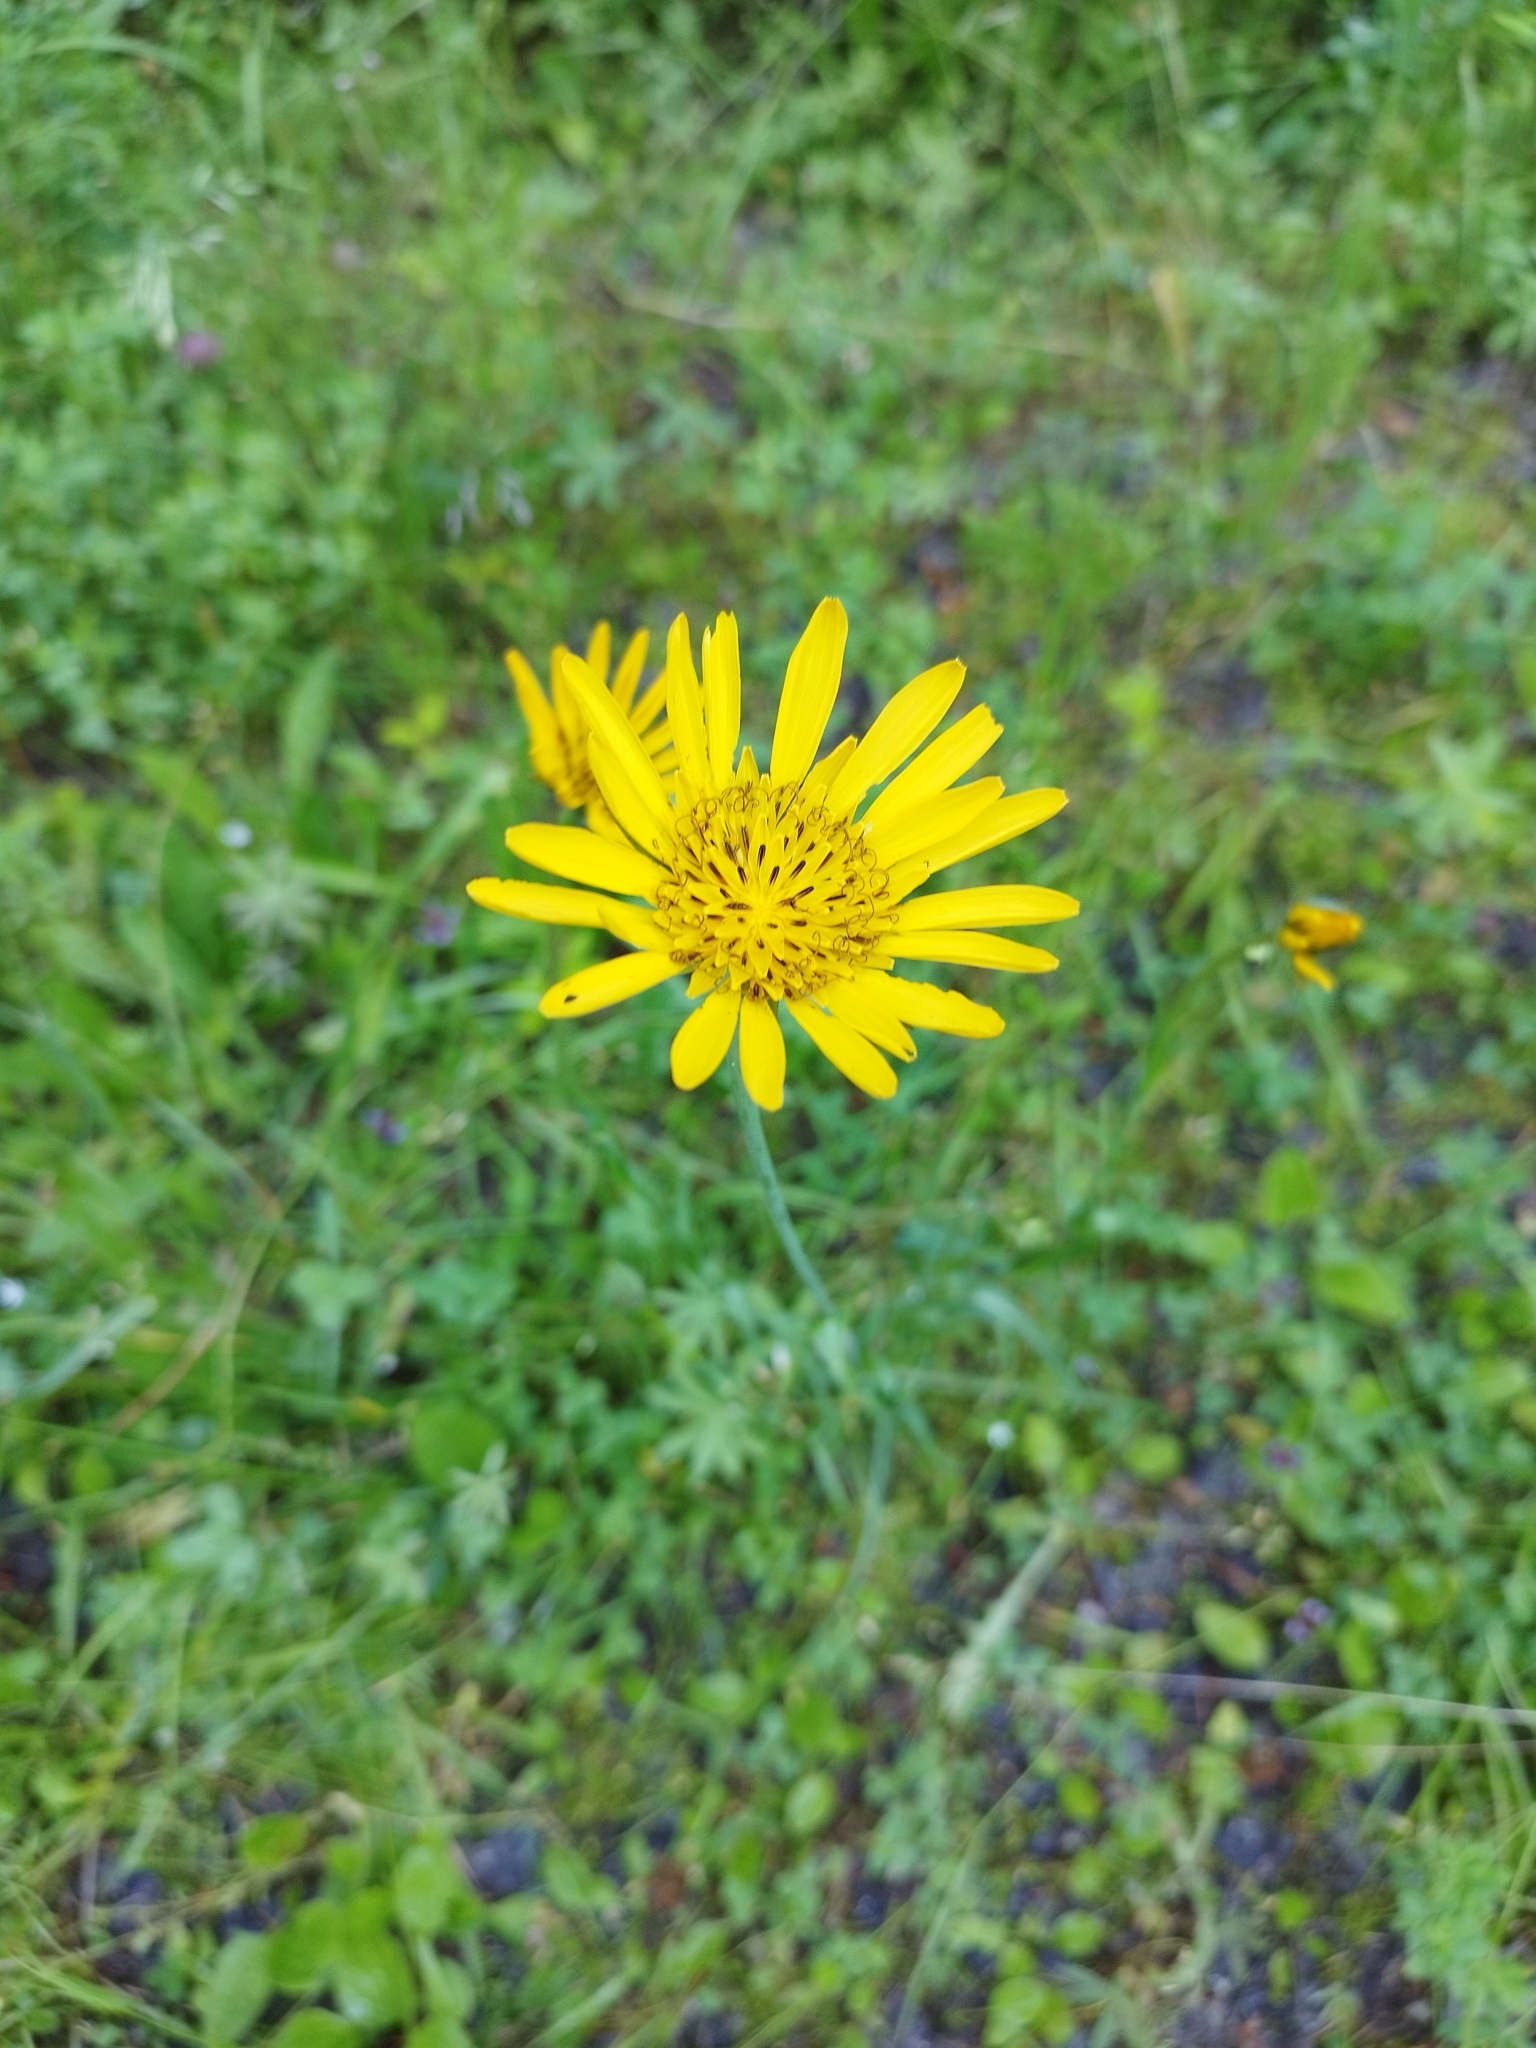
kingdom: Plantae
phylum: Tracheophyta
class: Magnoliopsida
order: Asterales
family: Asteraceae
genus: Tragopogon
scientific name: Tragopogon orientalis
